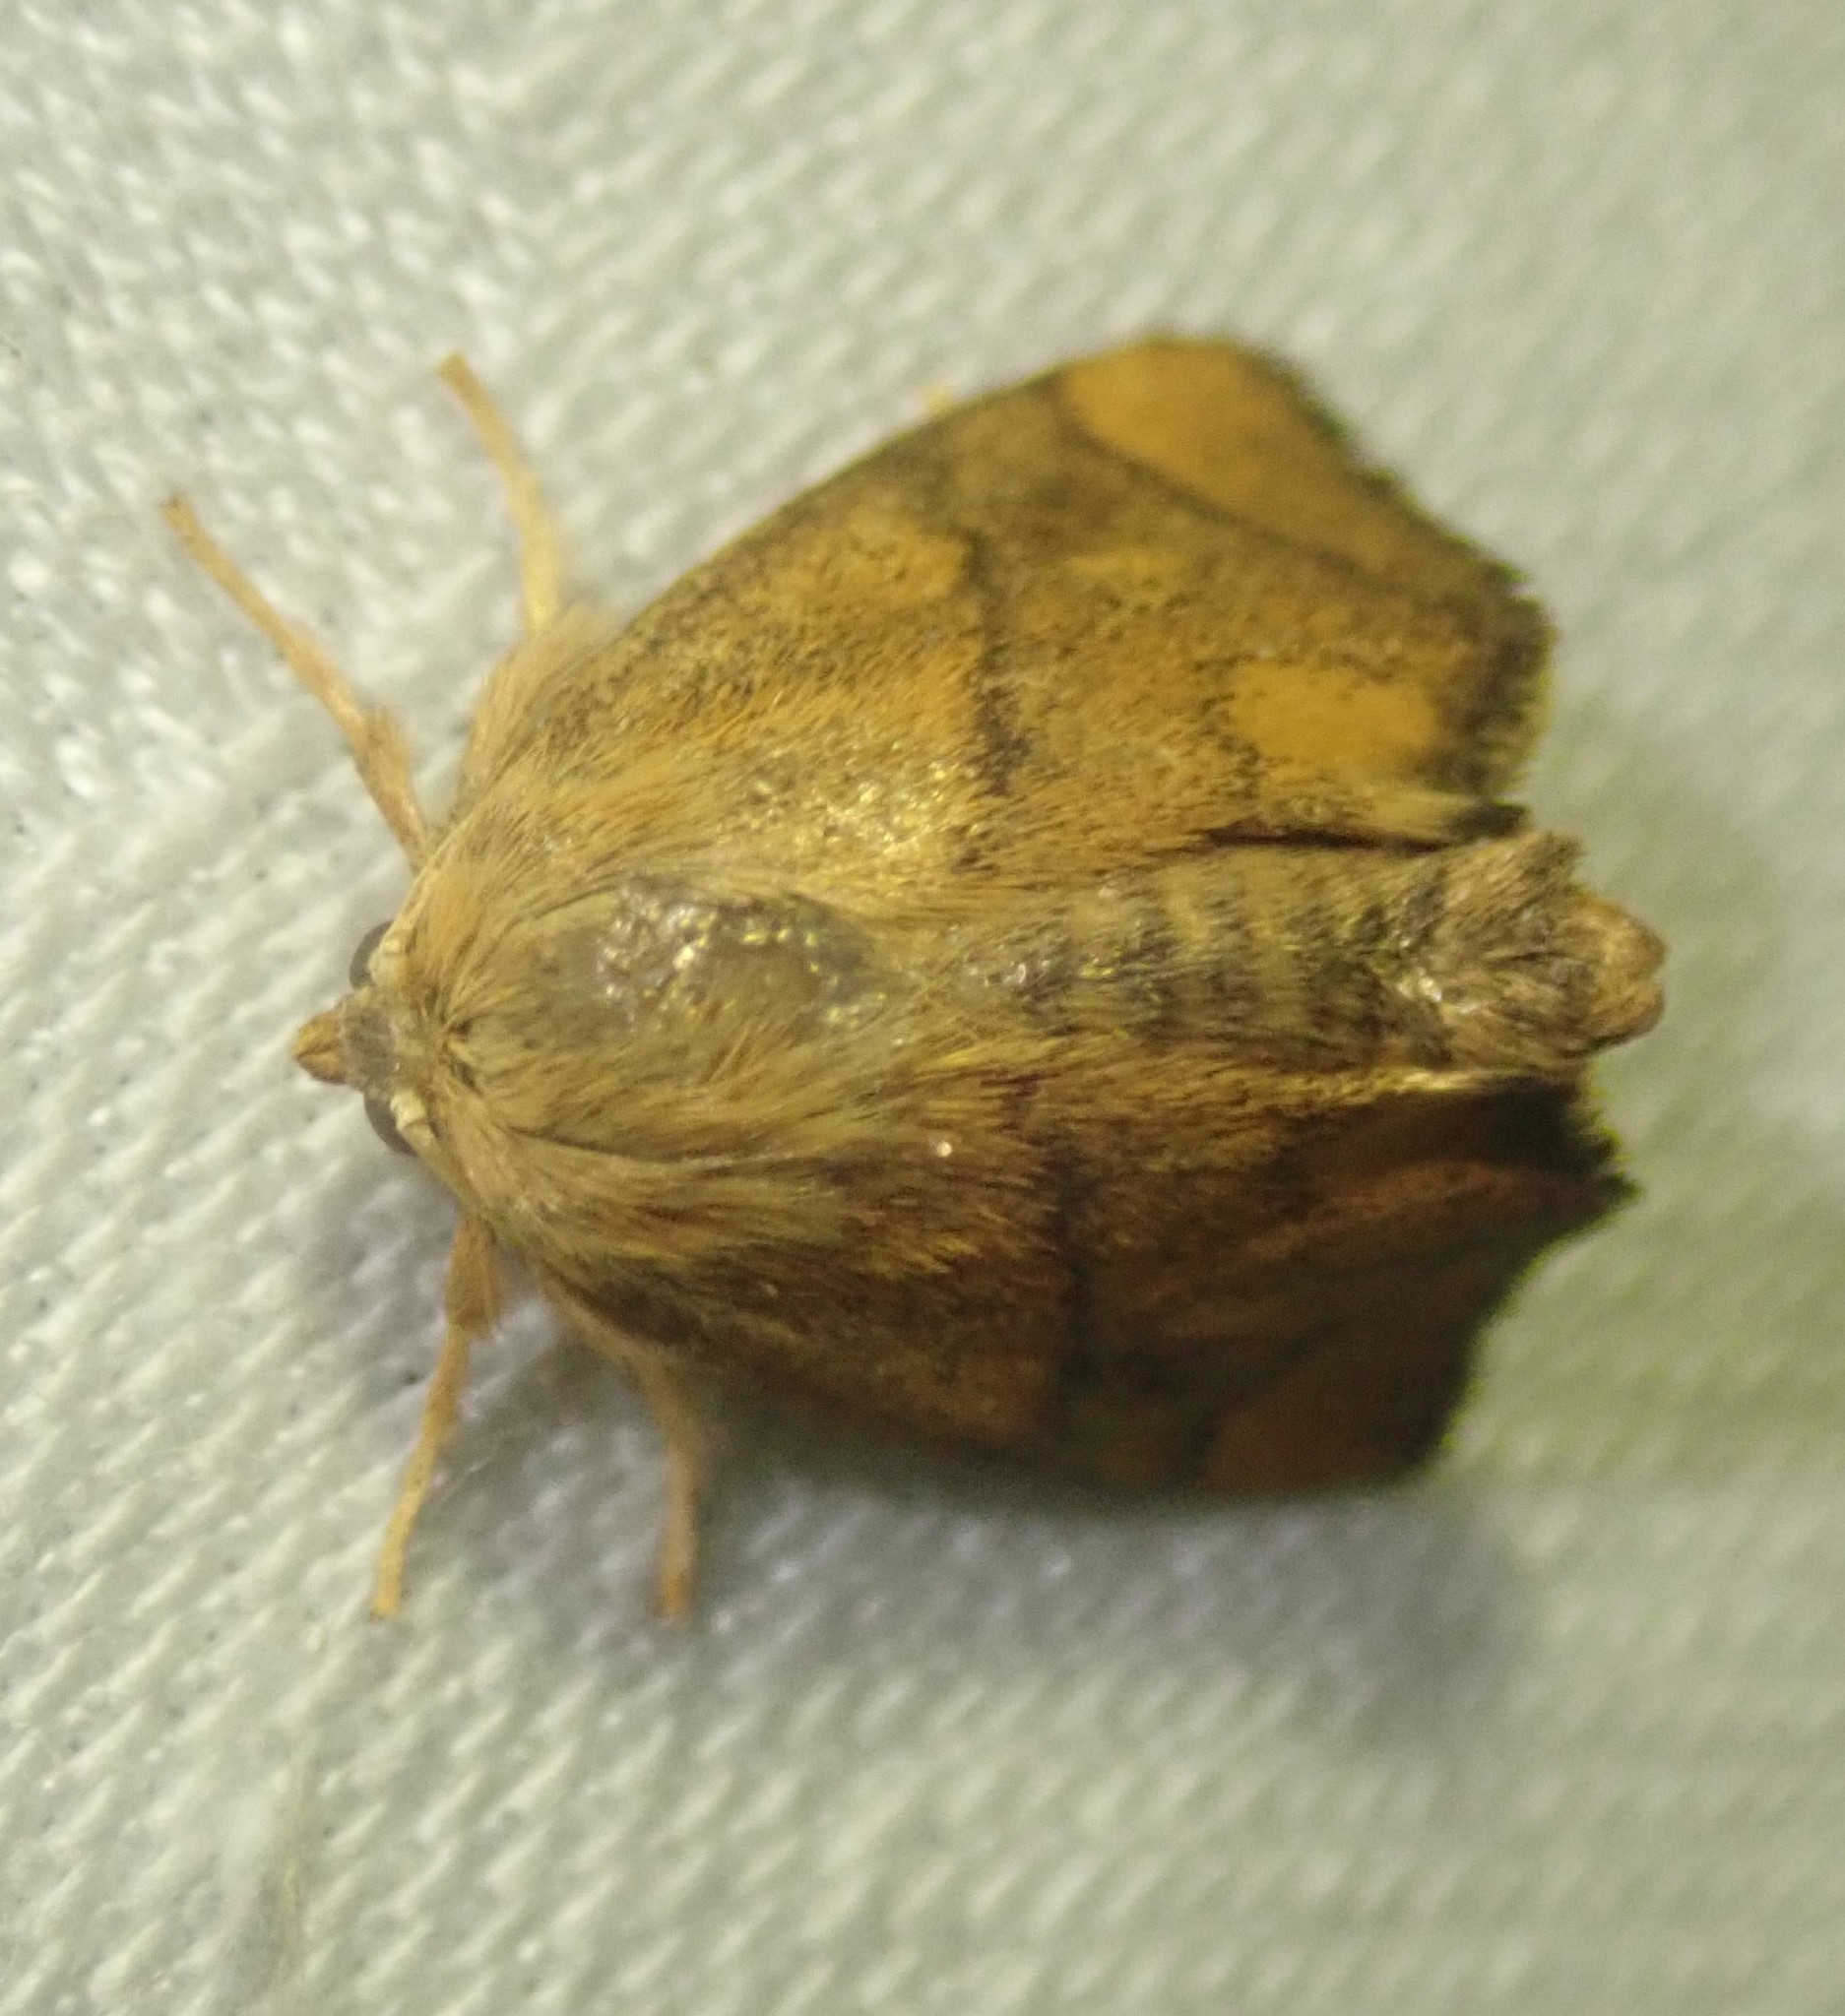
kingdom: Animalia
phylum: Arthropoda
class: Insecta
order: Lepidoptera
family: Limacodidae
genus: Apoda
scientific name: Apoda limacodes
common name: Festoon
